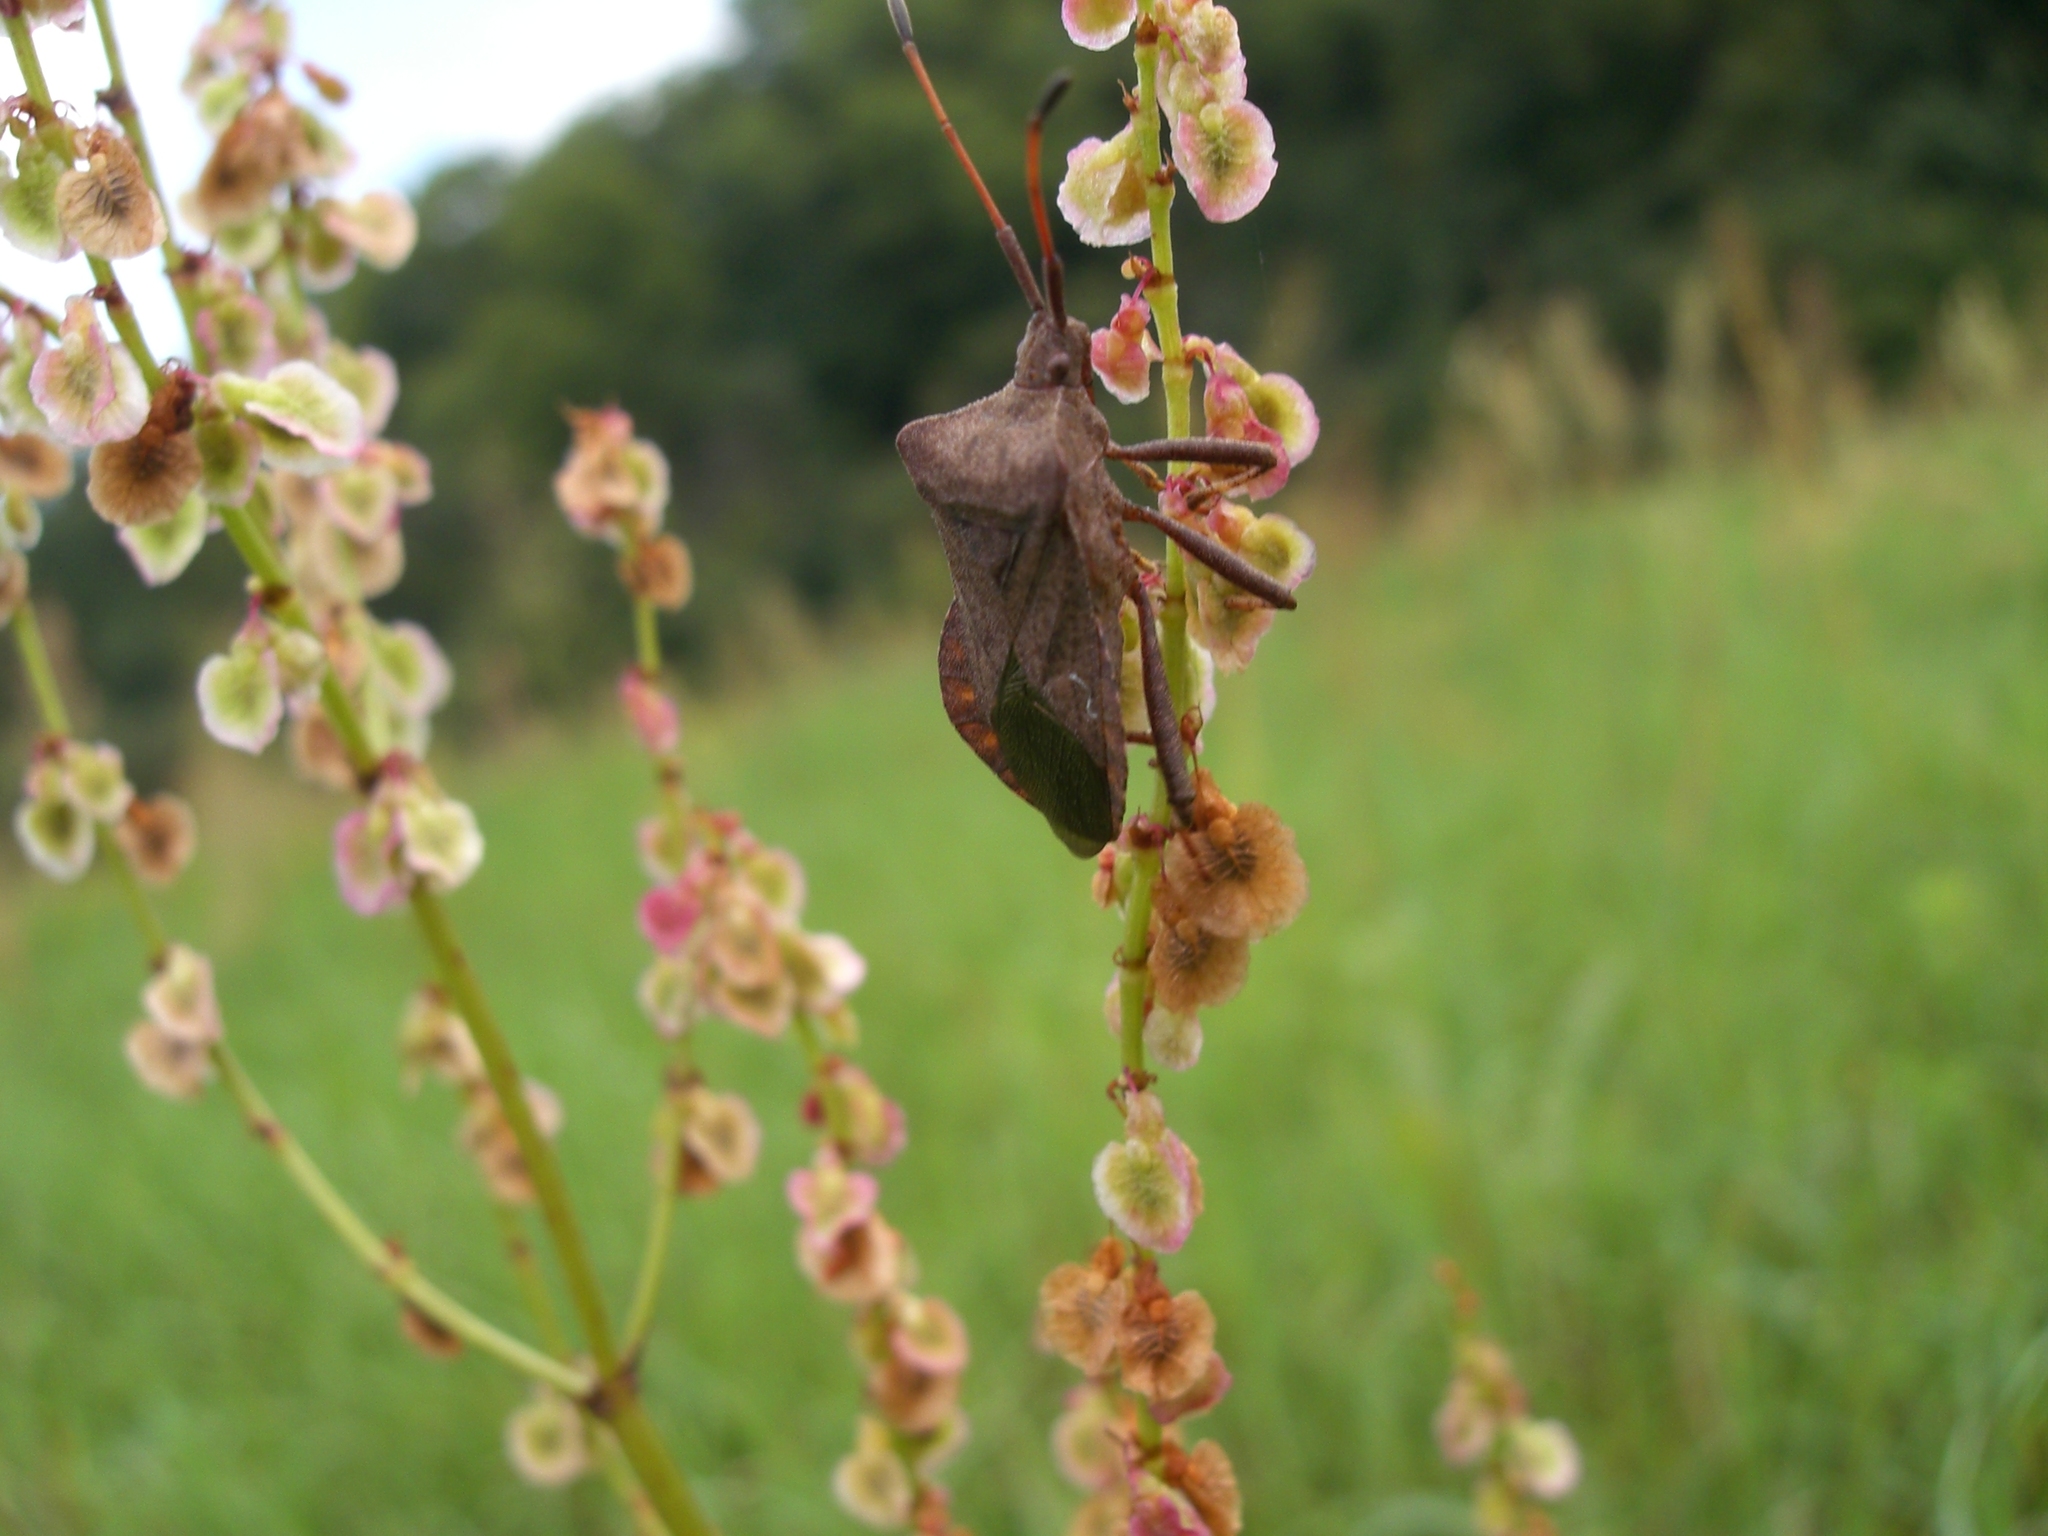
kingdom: Animalia
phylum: Arthropoda
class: Insecta
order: Hemiptera
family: Coreidae
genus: Coreus
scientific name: Coreus marginatus
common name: Dock bug
